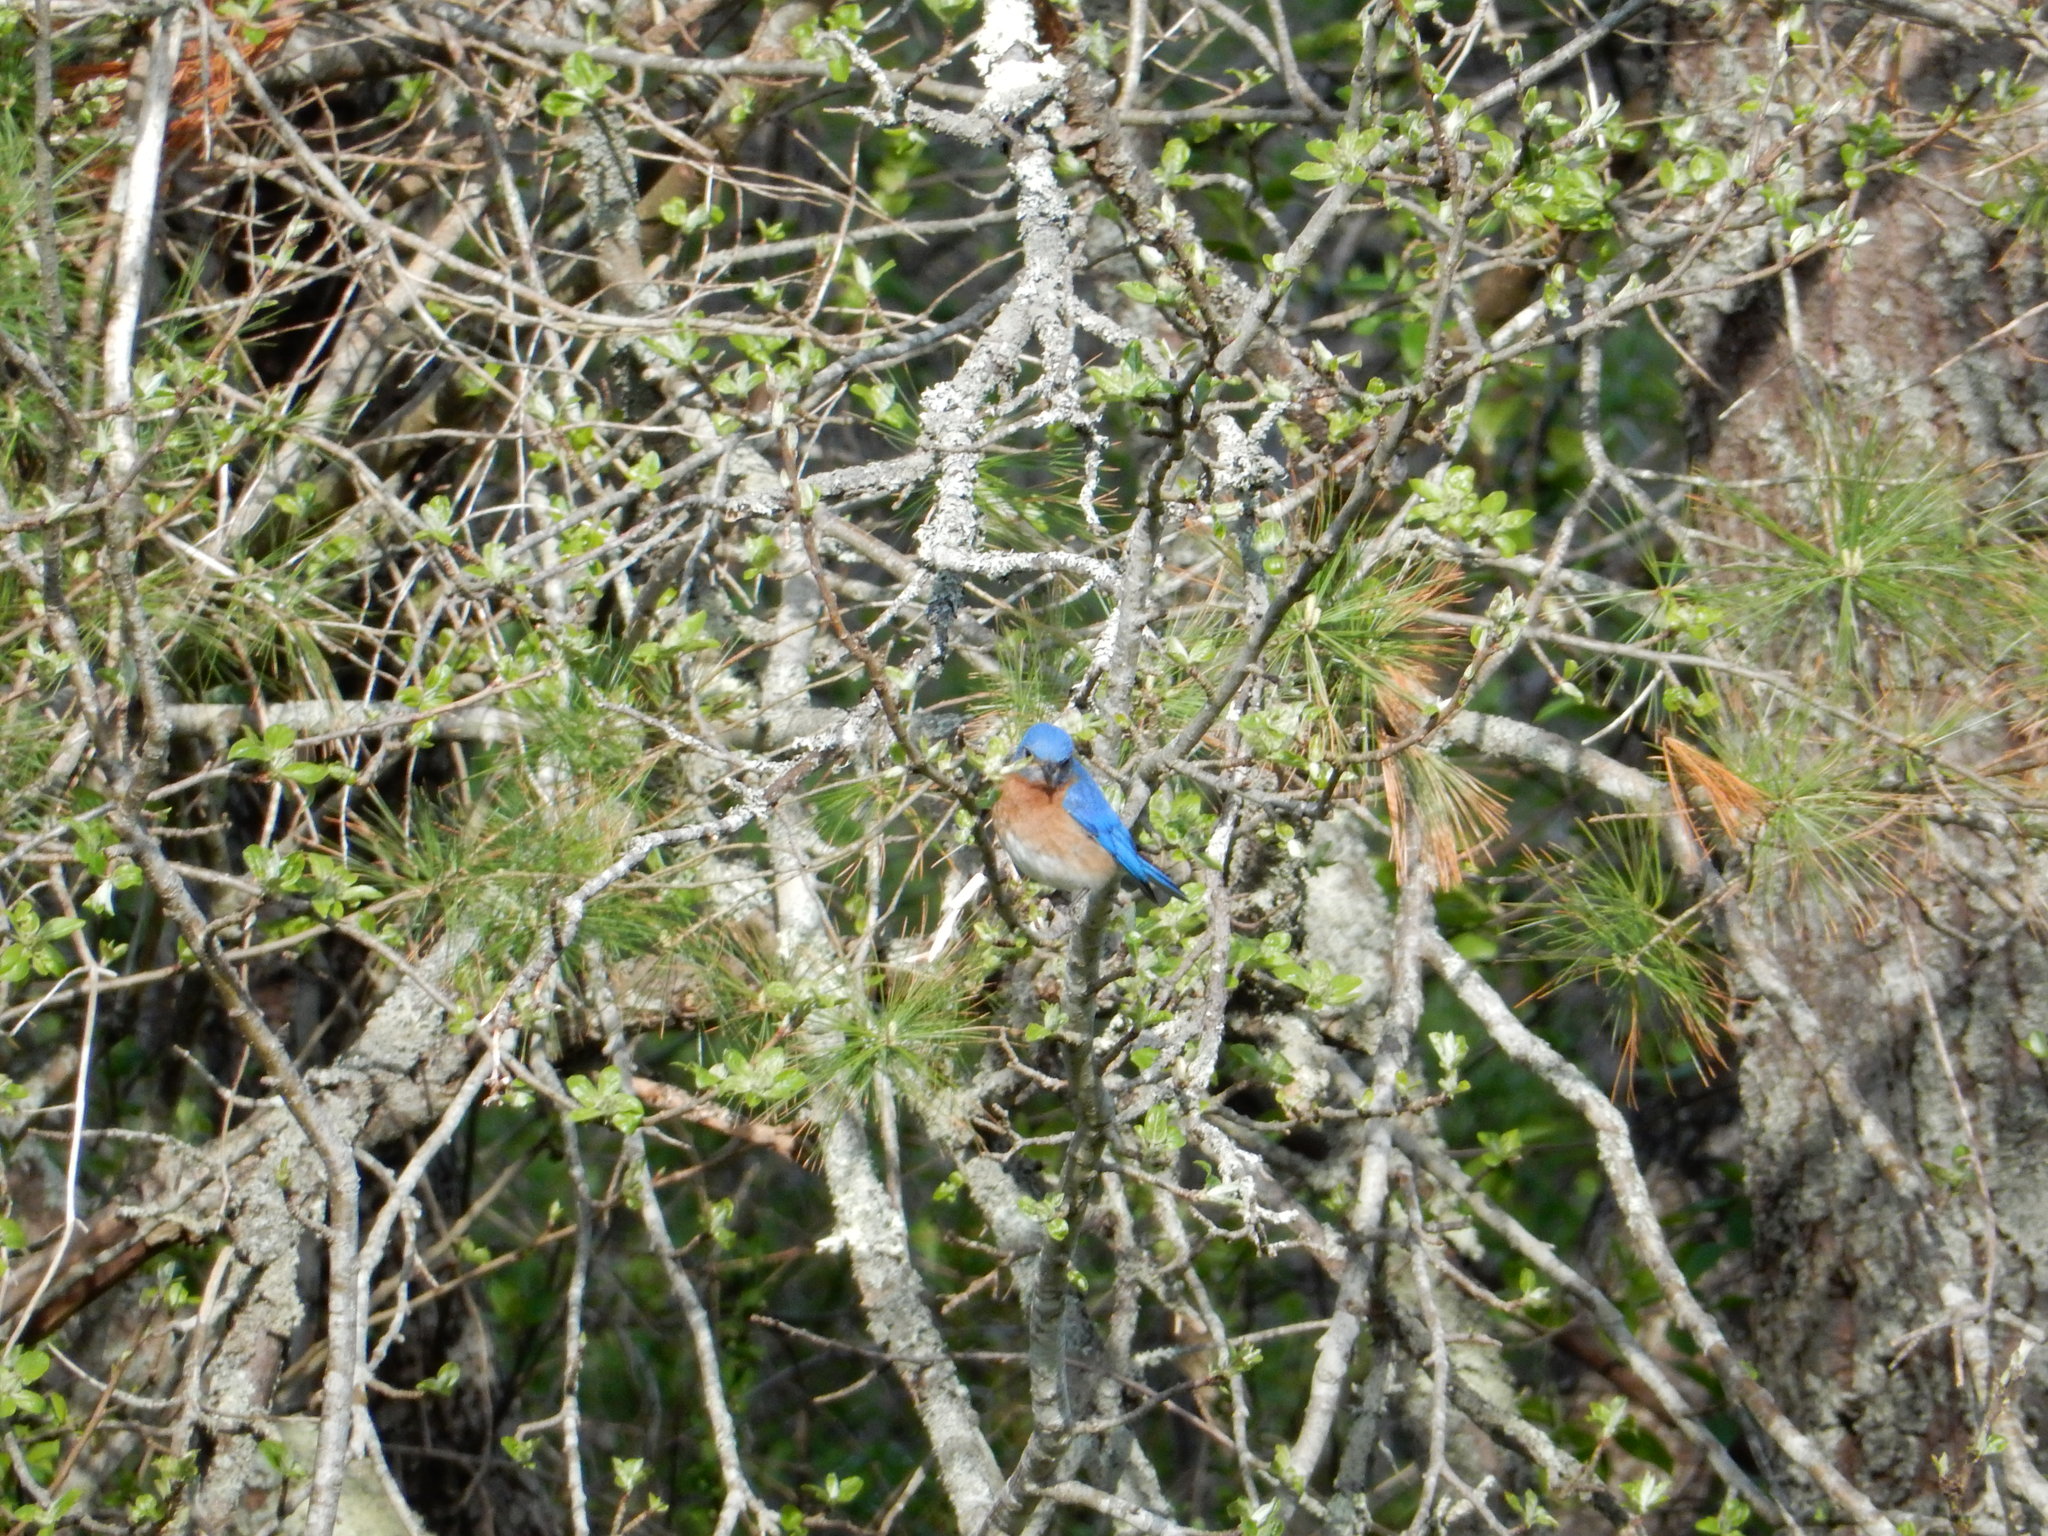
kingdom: Animalia
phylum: Chordata
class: Aves
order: Passeriformes
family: Turdidae
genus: Sialia
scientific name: Sialia sialis
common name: Eastern bluebird
